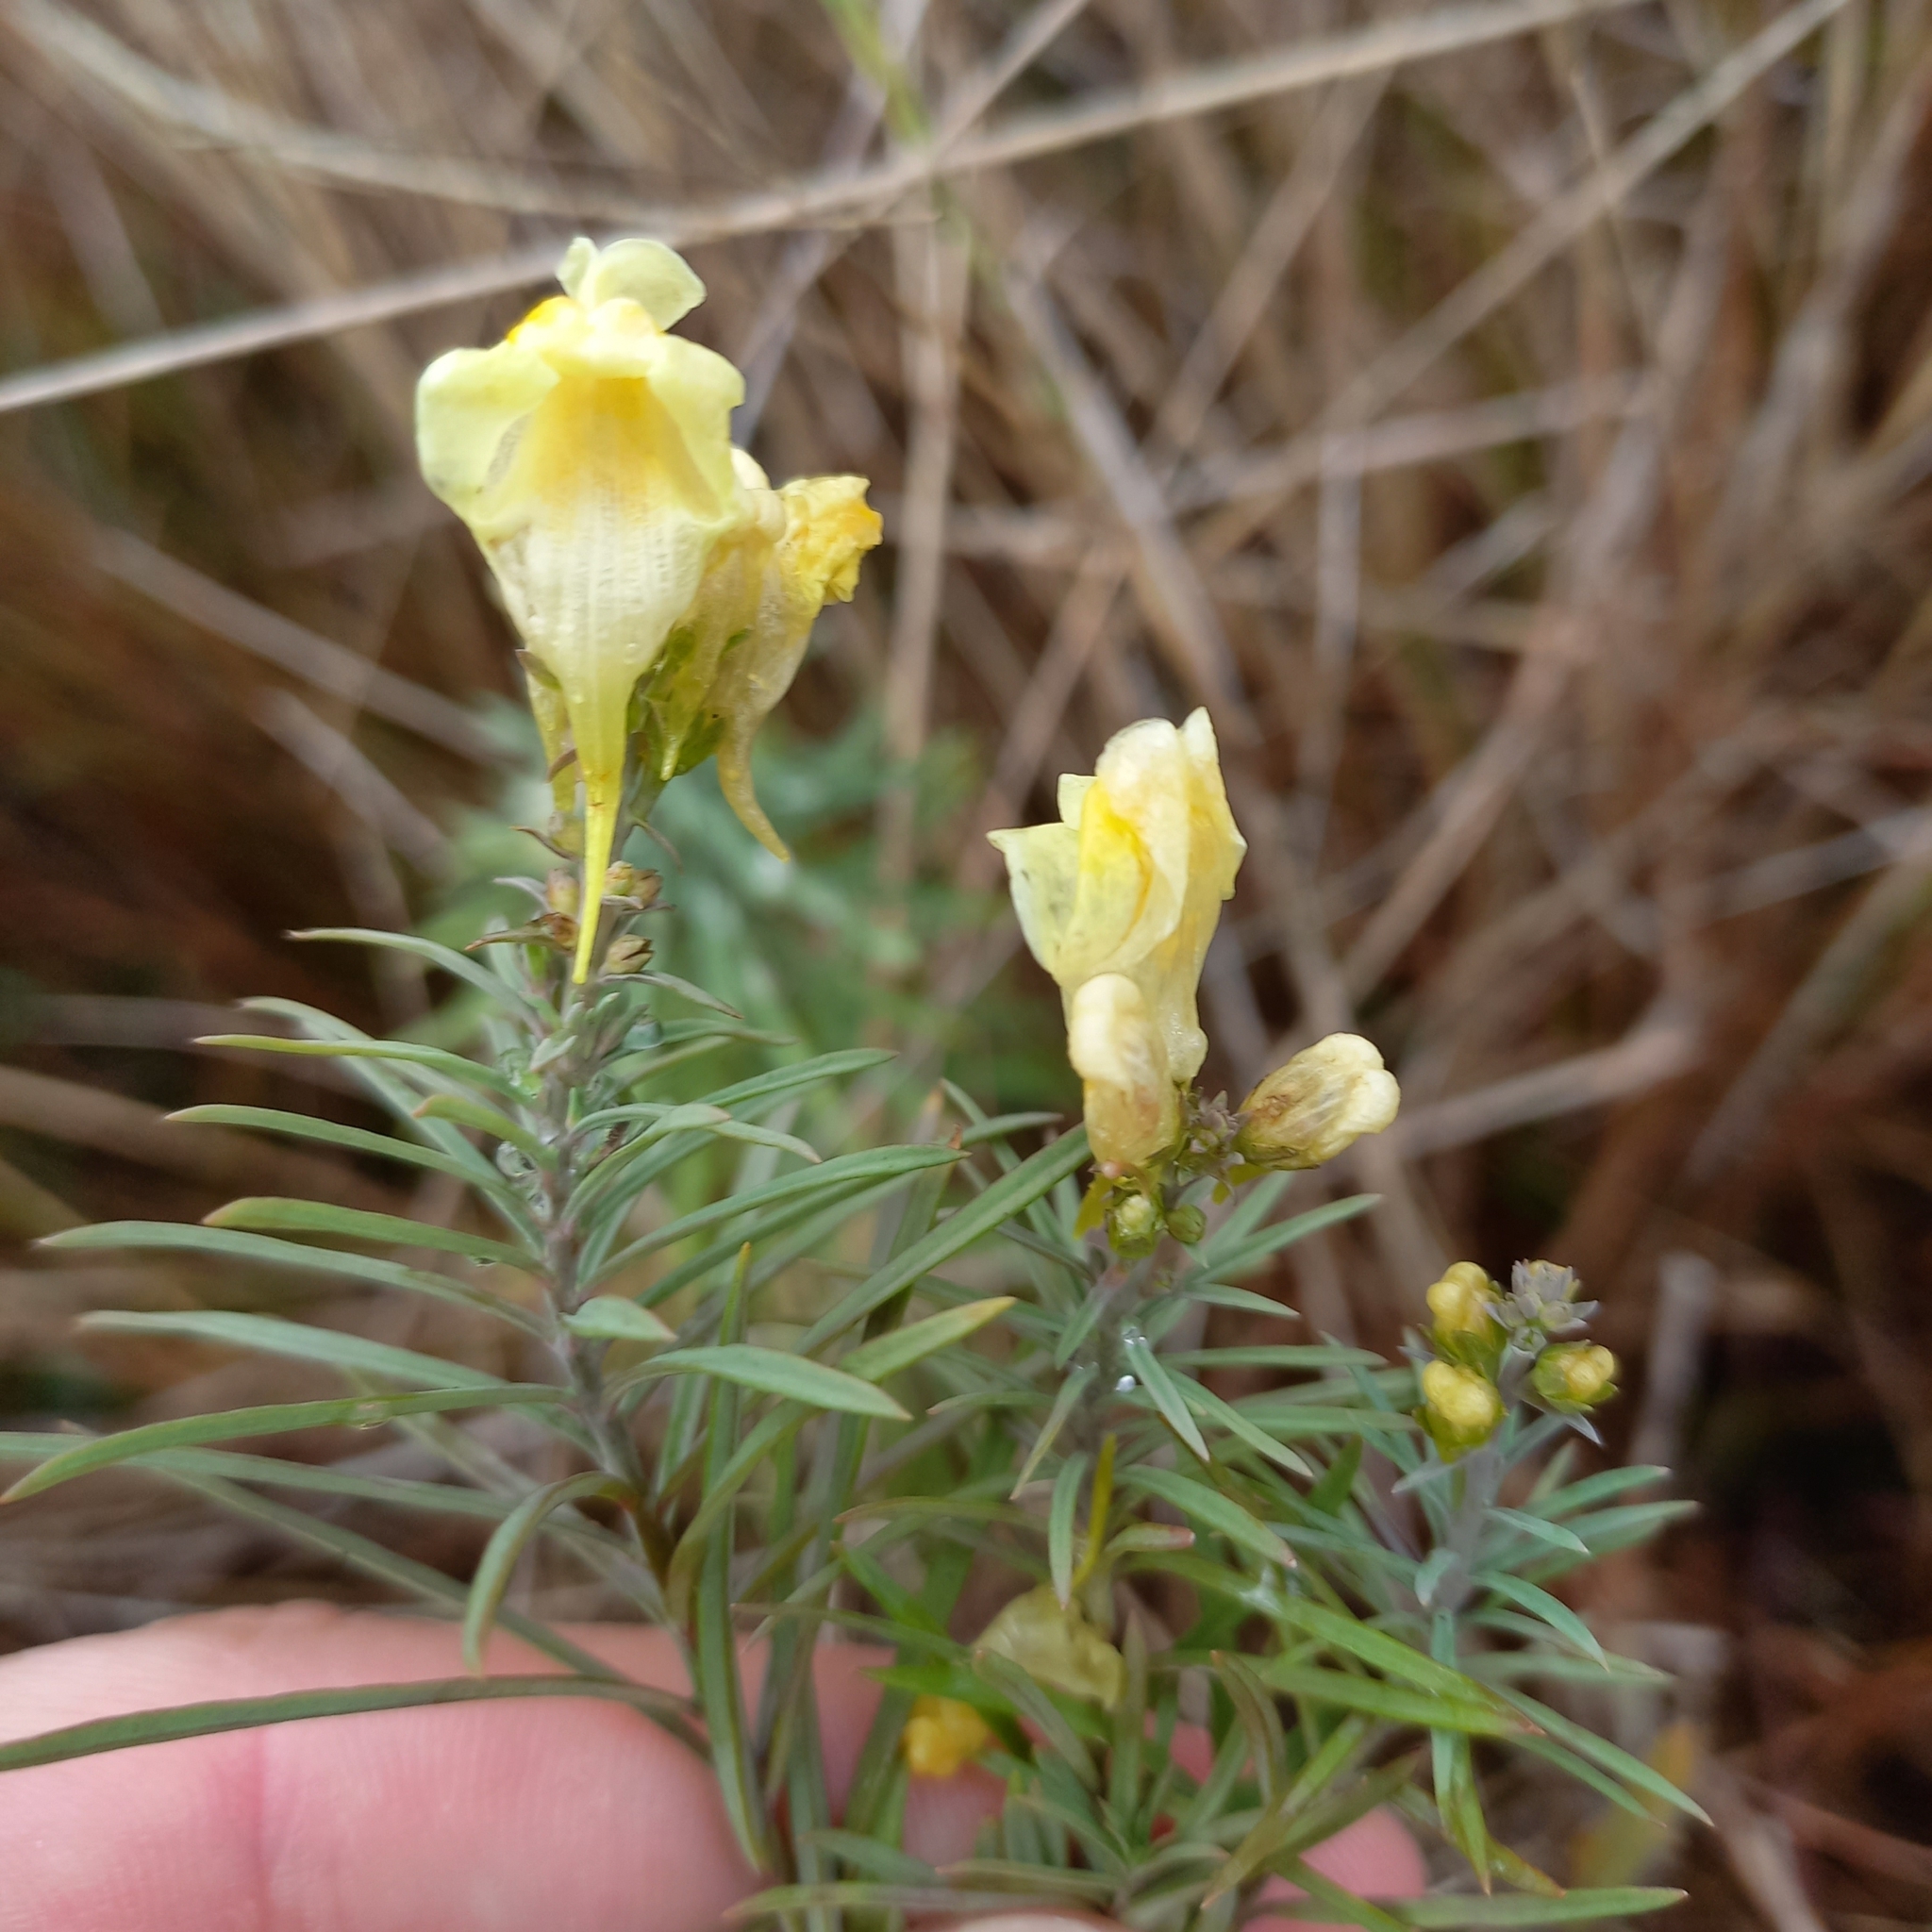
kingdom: Plantae
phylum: Tracheophyta
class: Magnoliopsida
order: Lamiales
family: Plantaginaceae
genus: Linaria
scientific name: Linaria vulgaris
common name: Butter and eggs
